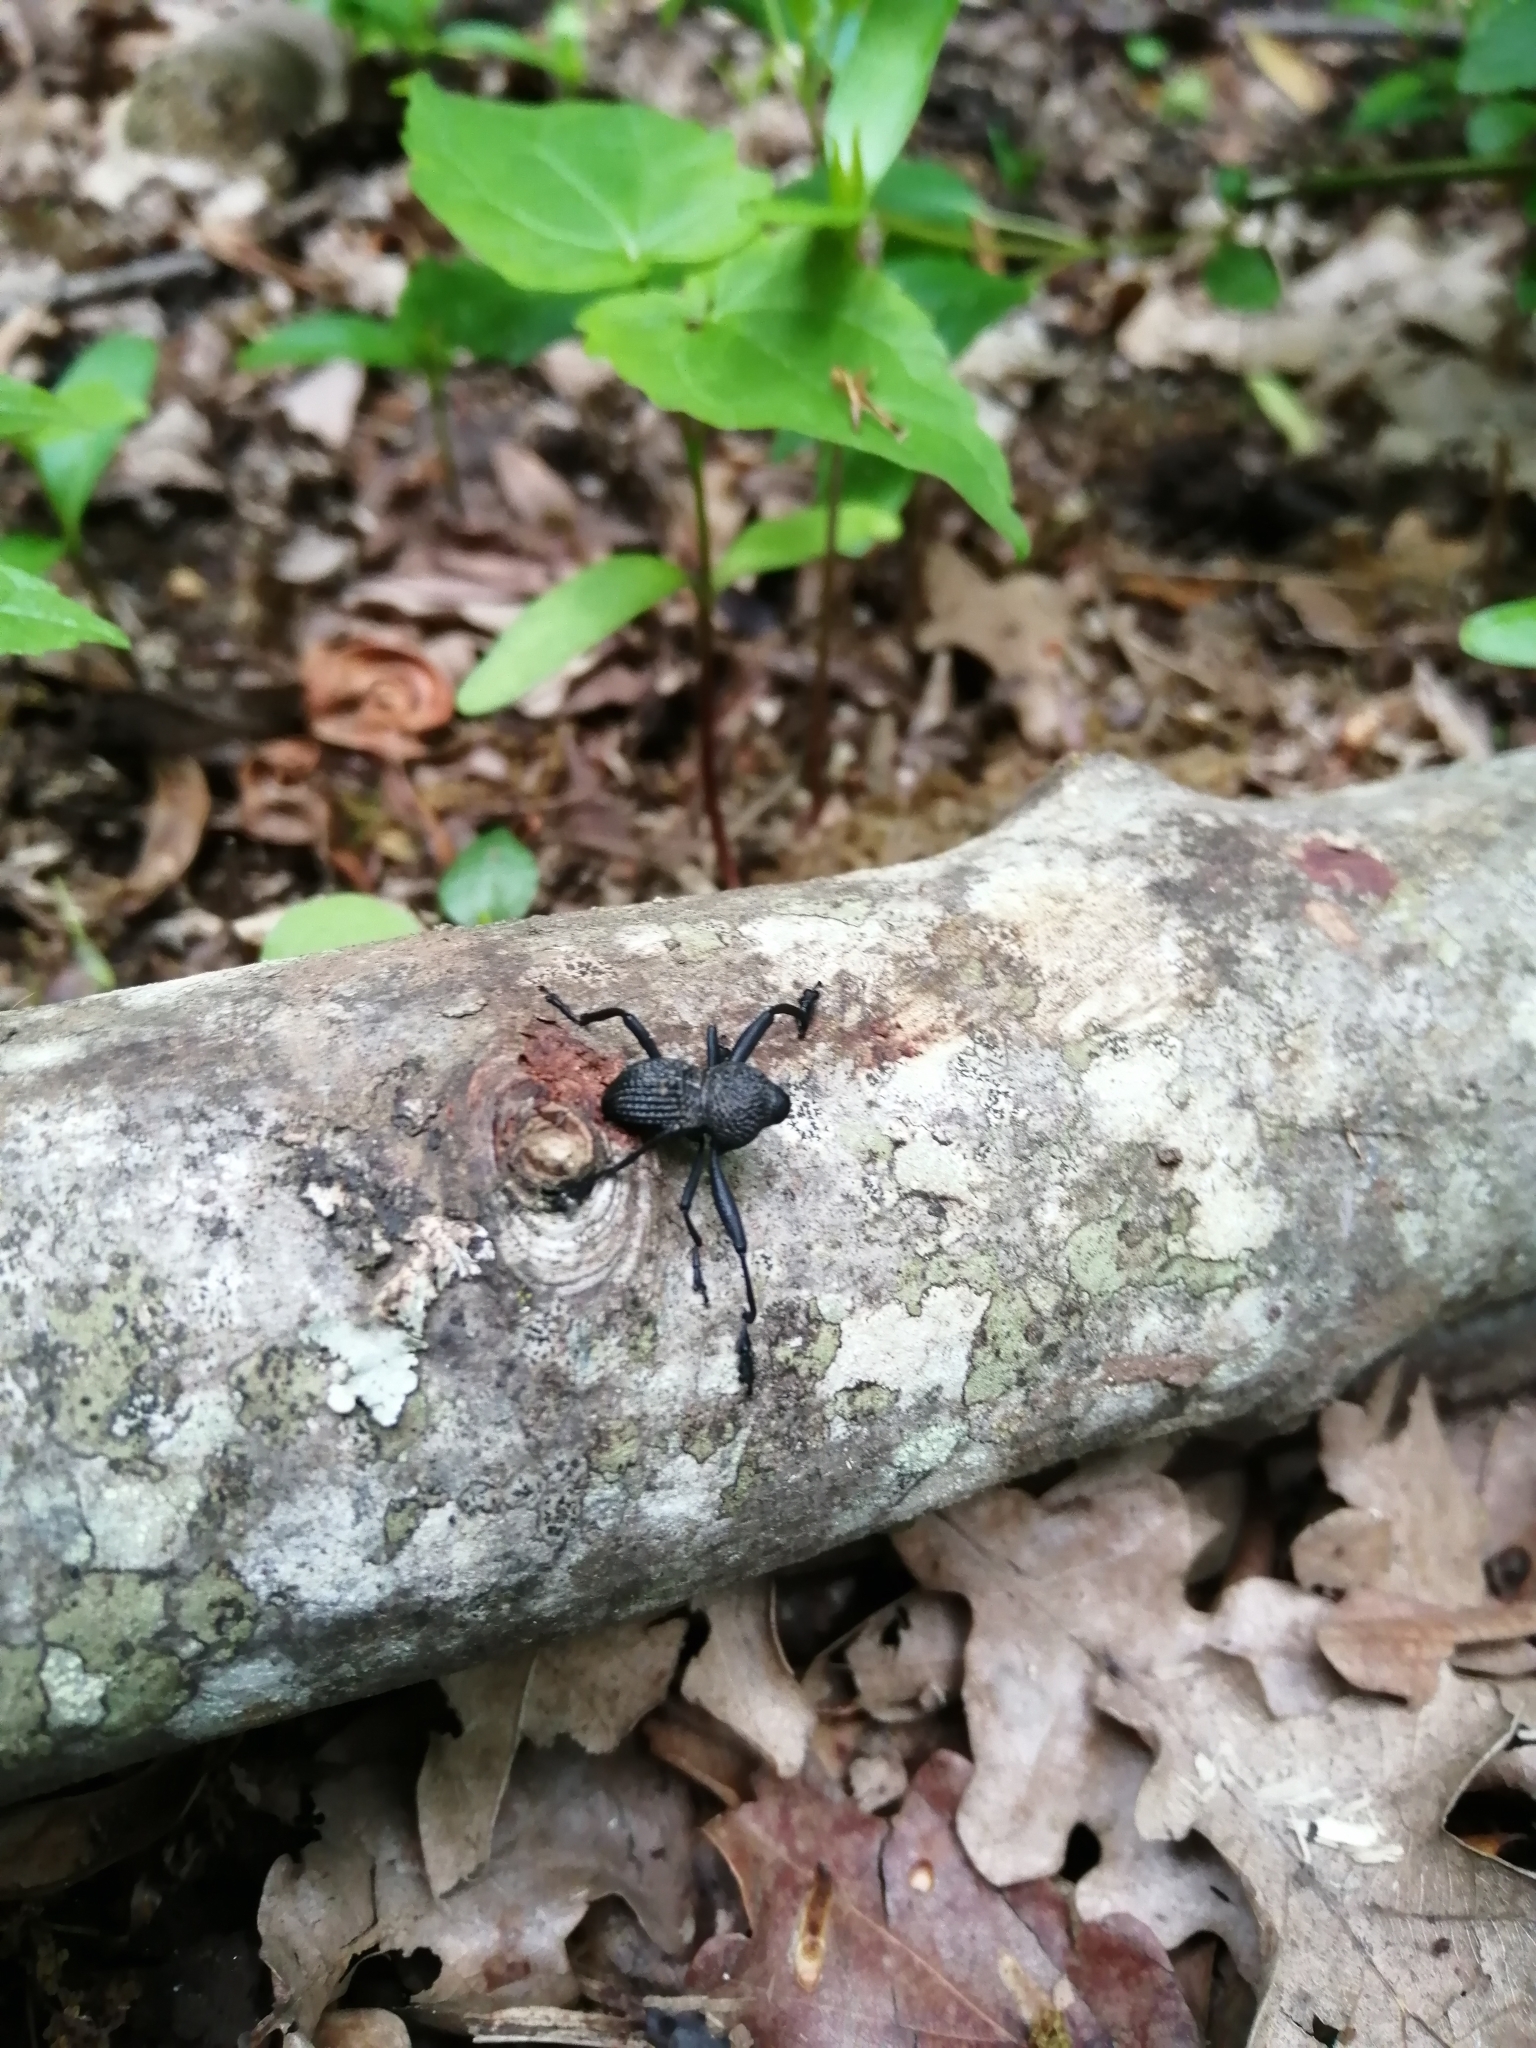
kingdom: Animalia
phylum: Arthropoda
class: Insecta
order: Coleoptera
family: Curculionidae
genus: Rhyephenes
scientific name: Rhyephenes maillei
